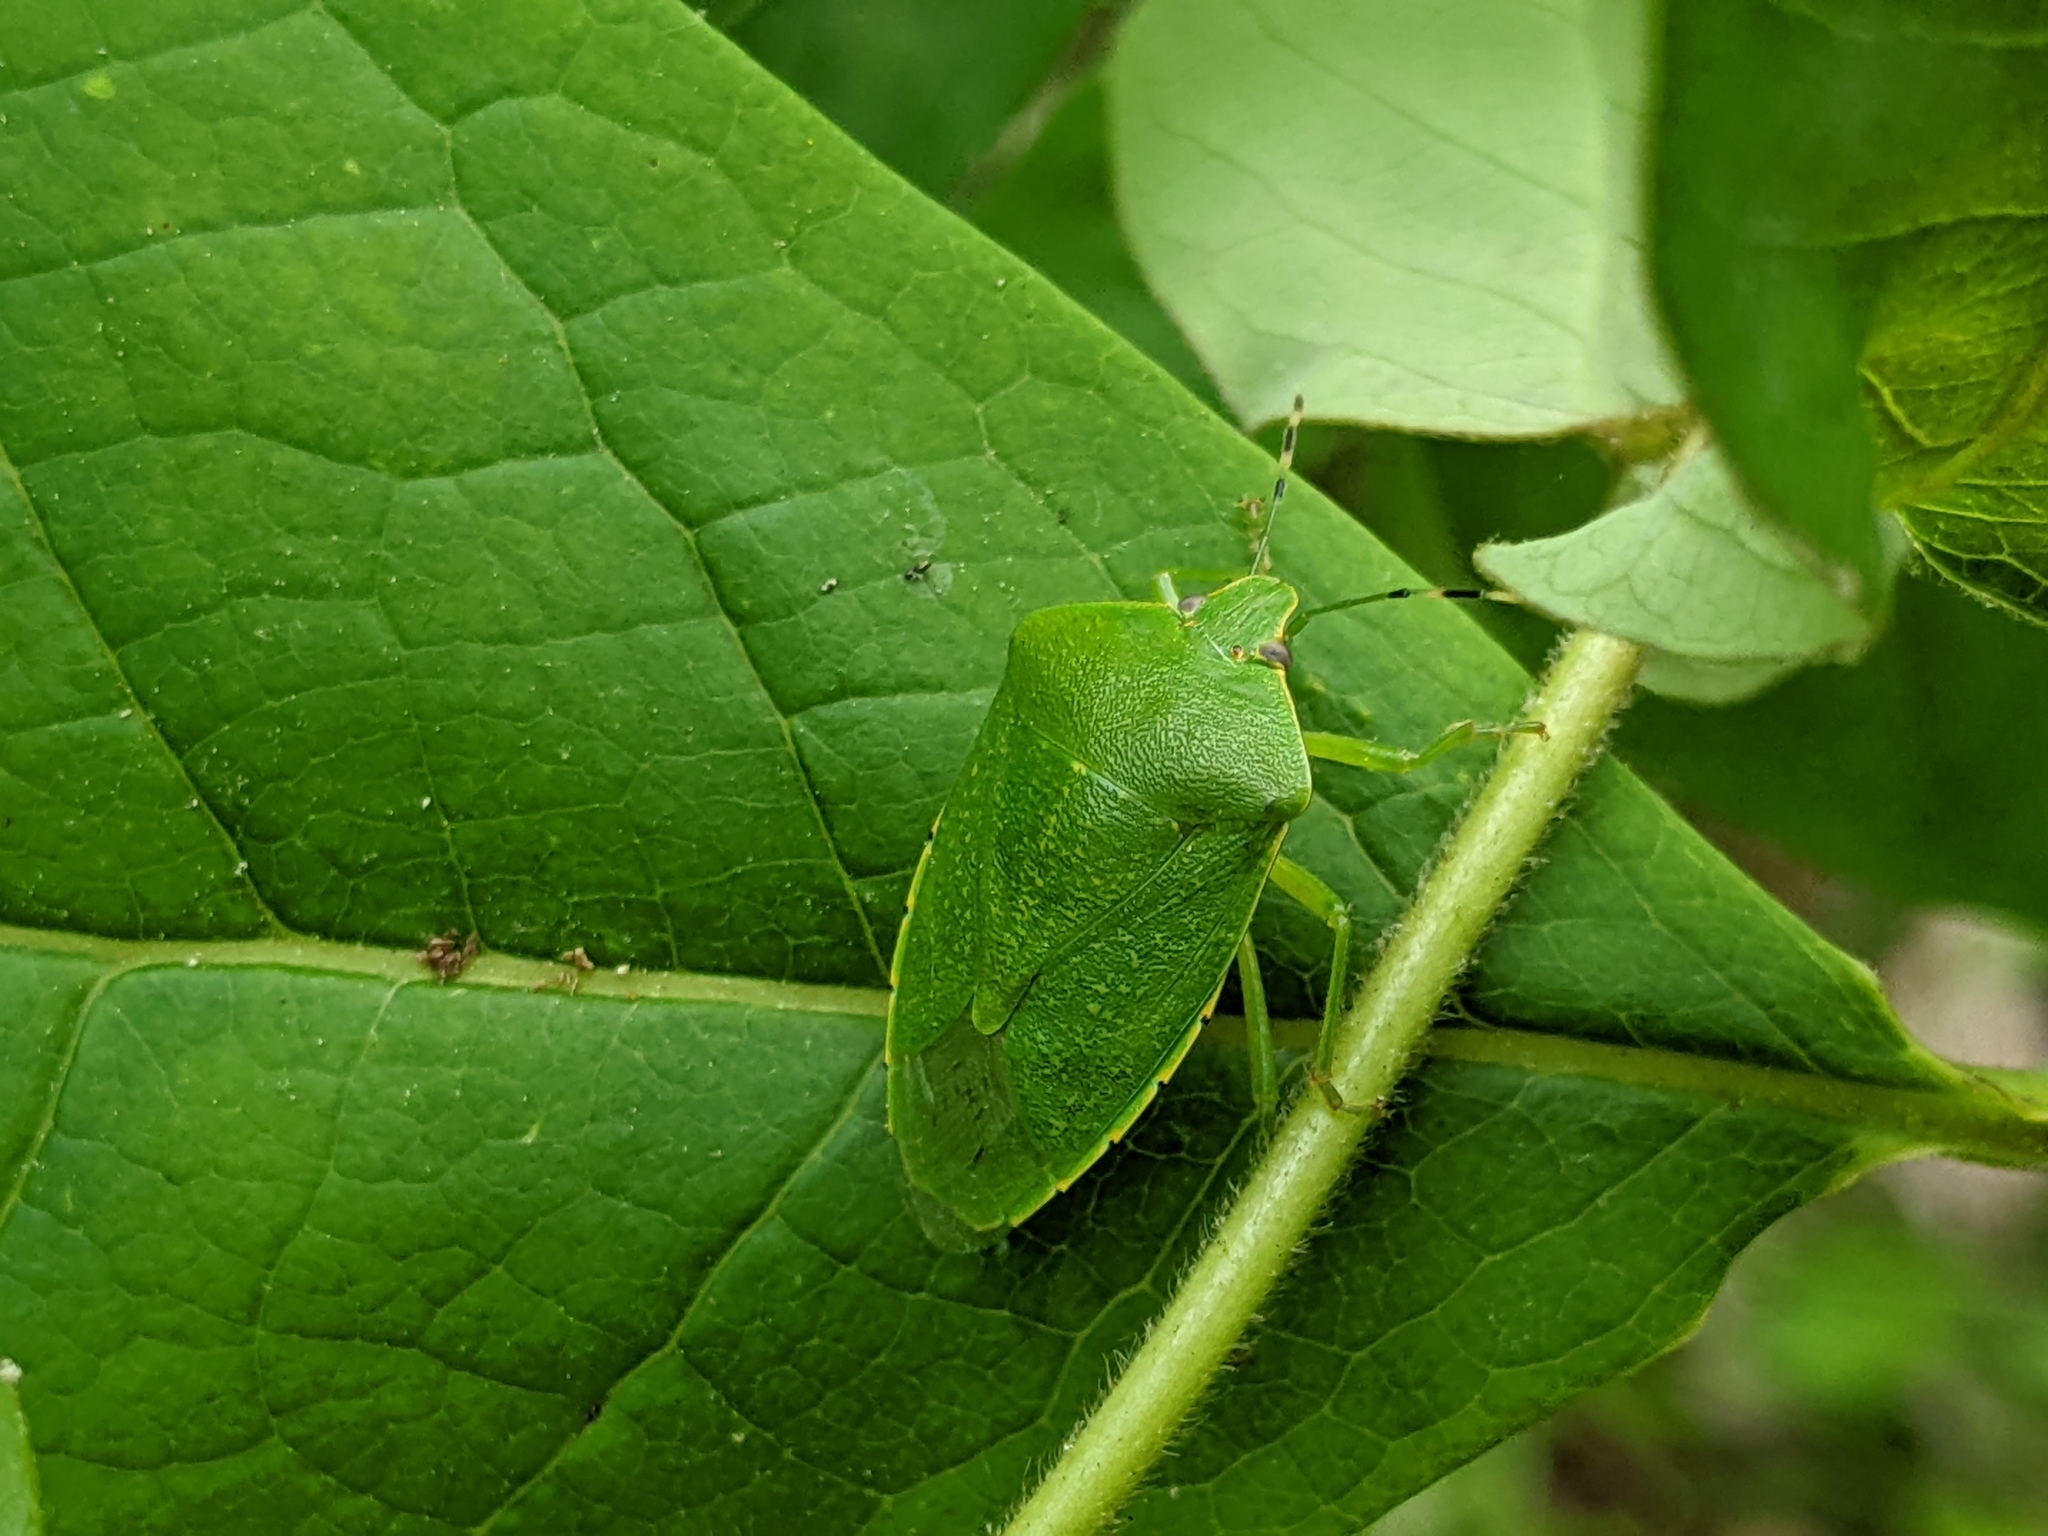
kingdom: Animalia
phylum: Arthropoda
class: Insecta
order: Hemiptera
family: Pentatomidae
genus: Chinavia
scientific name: Chinavia hilaris
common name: Green stink bug
